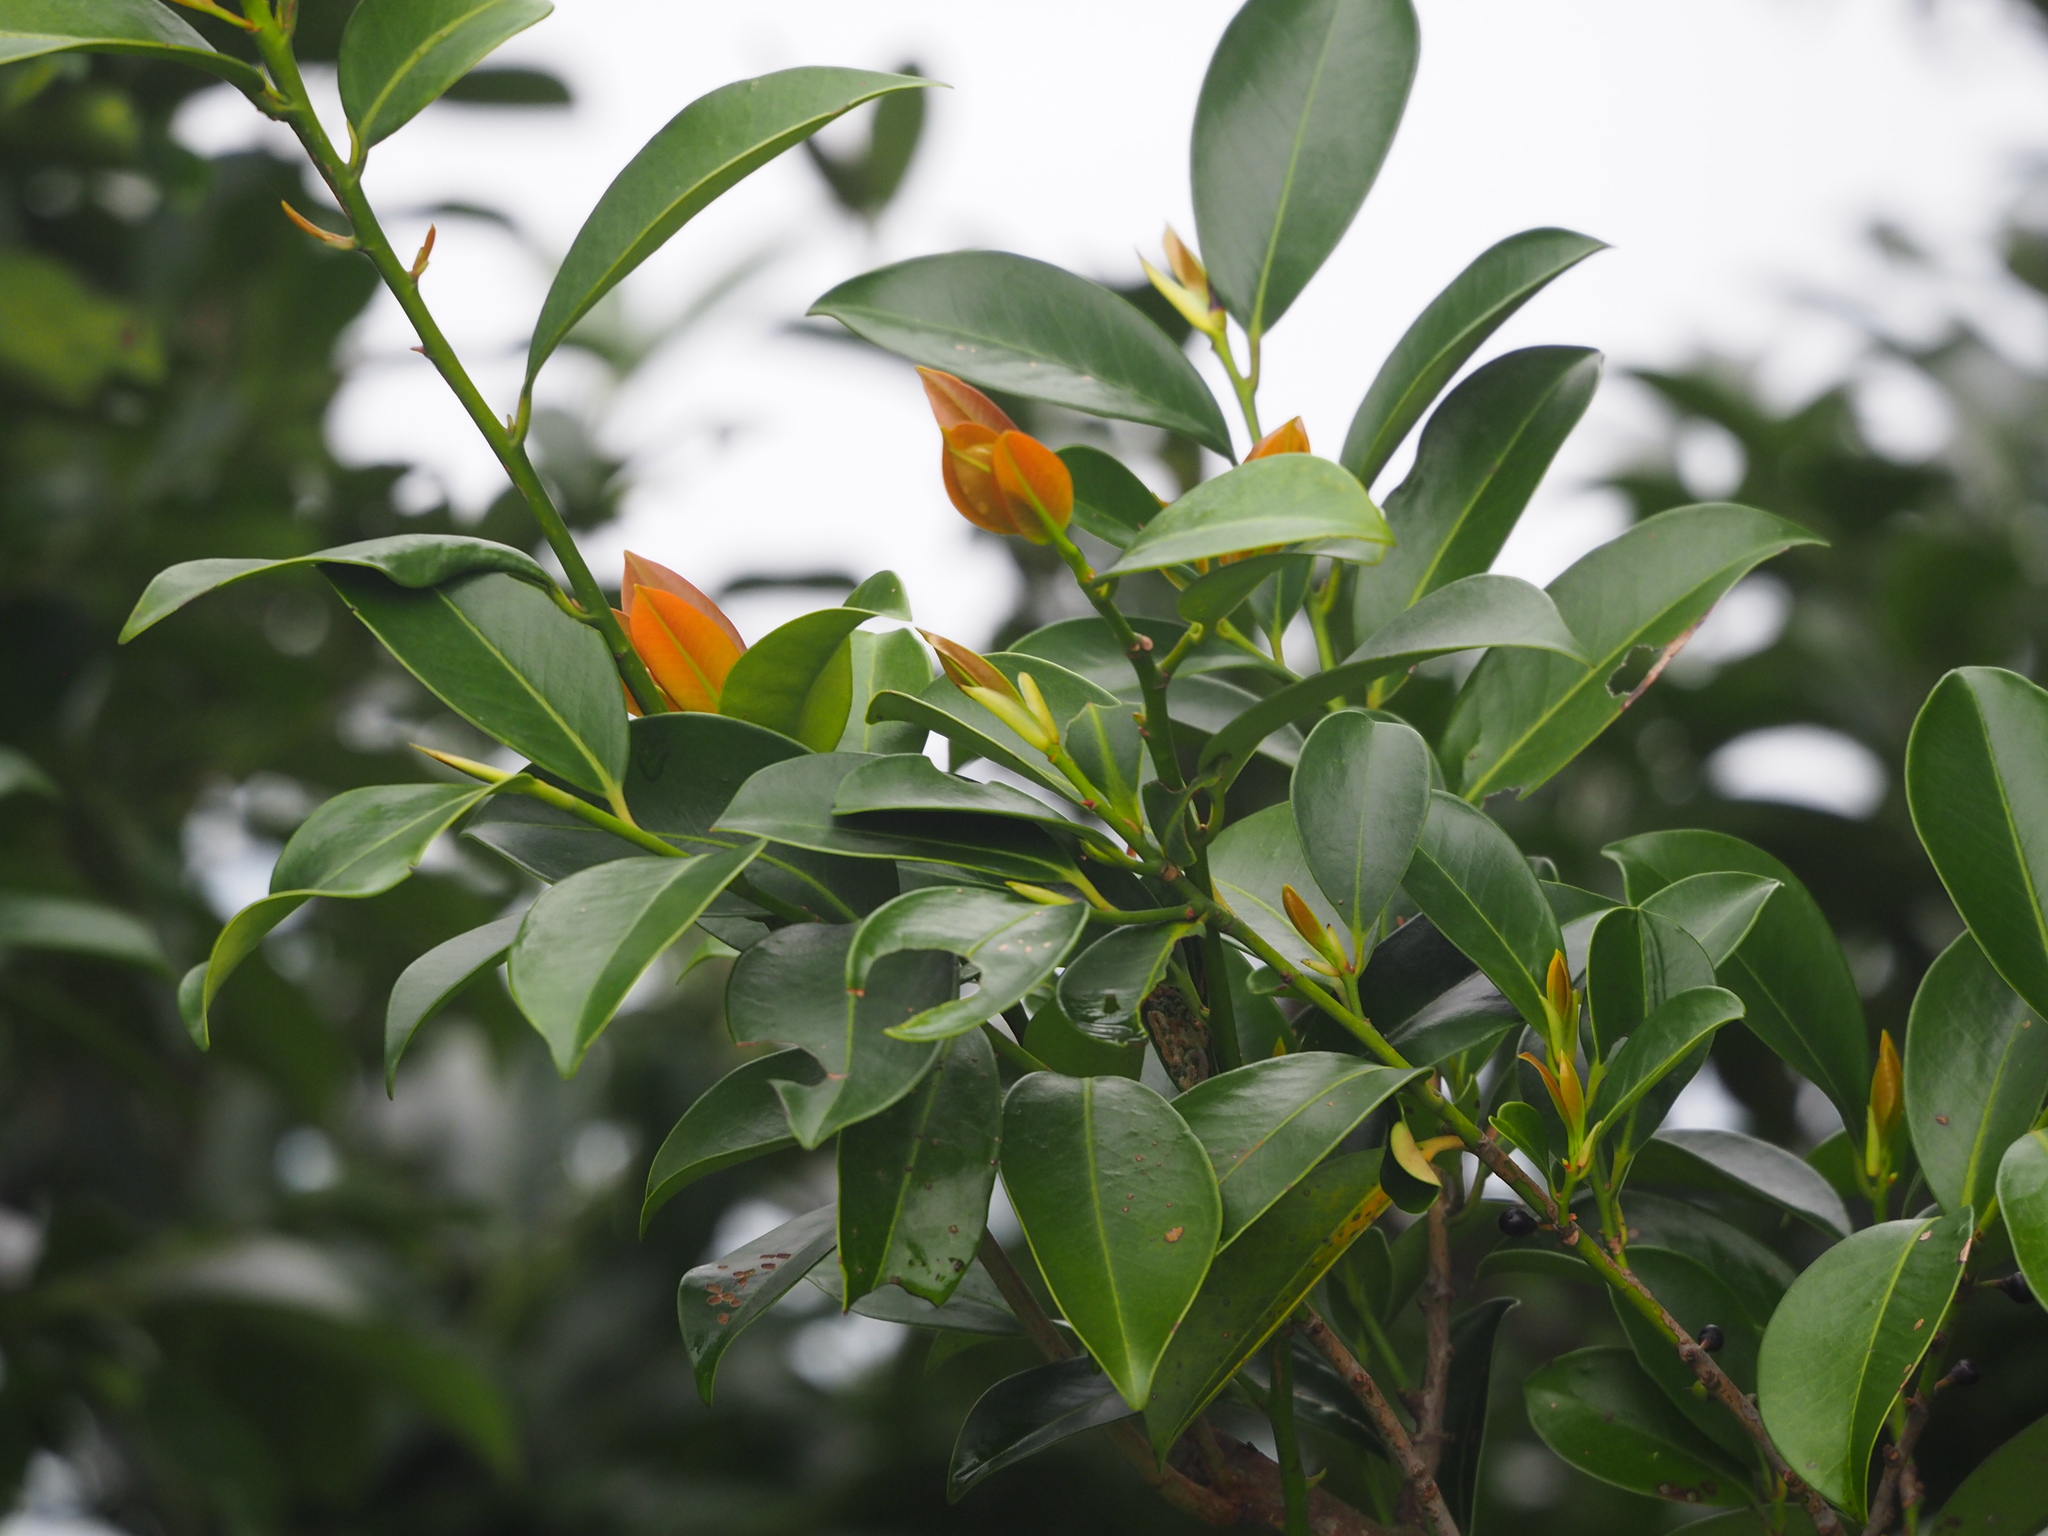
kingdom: Plantae
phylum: Tracheophyta
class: Magnoliopsida
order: Ericales
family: Pentaphylacaceae
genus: Cleyera
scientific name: Cleyera japonica
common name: Sakaki
